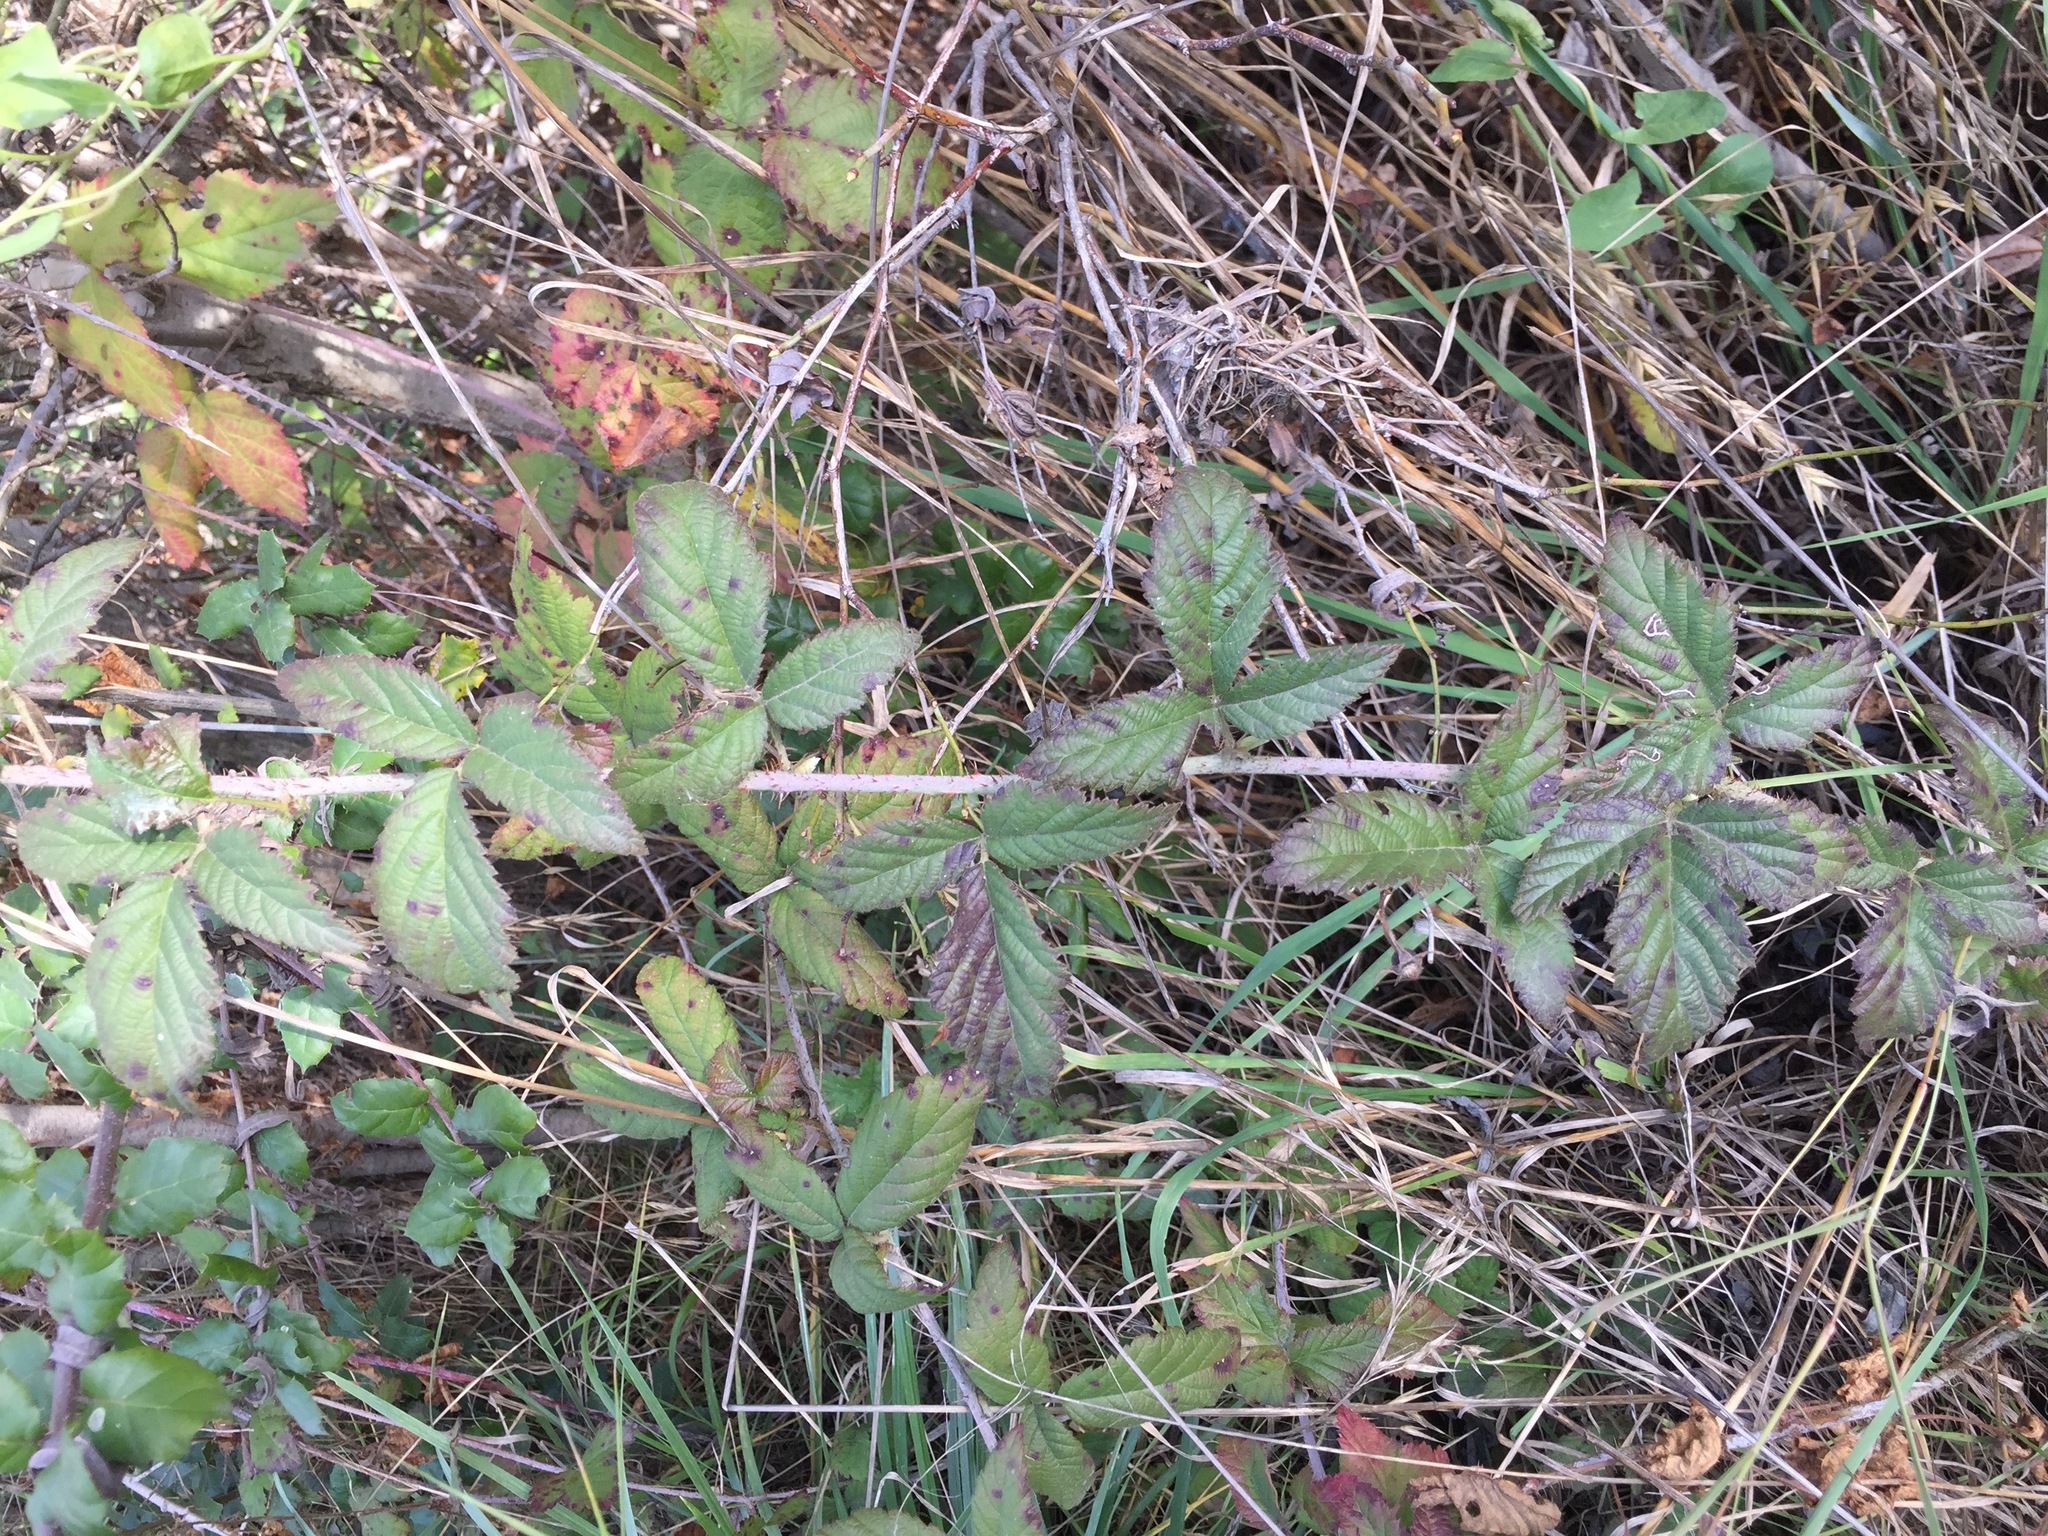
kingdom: Plantae
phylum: Tracheophyta
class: Magnoliopsida
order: Rosales
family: Rosaceae
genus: Rubus
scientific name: Rubus ursinus
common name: Pacific blackberry
